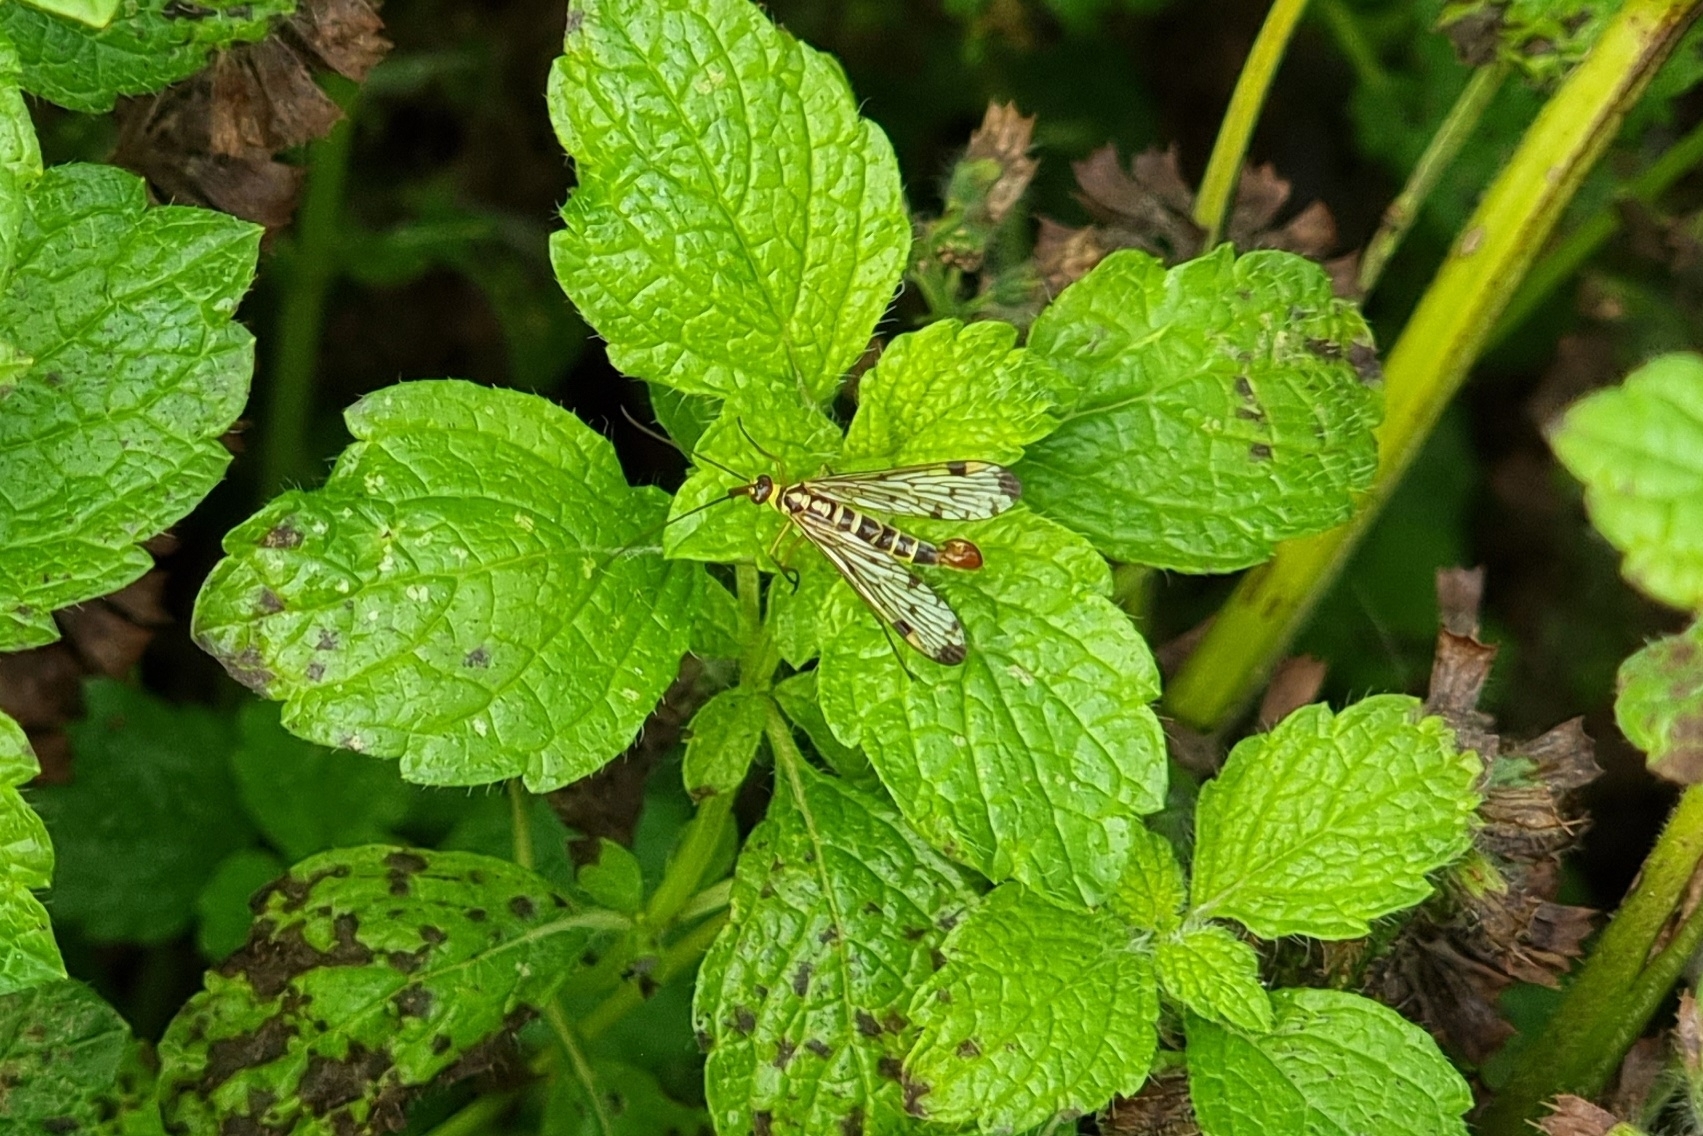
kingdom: Animalia
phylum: Arthropoda
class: Insecta
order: Mecoptera
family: Panorpidae
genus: Panorpa
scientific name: Panorpa germanica
